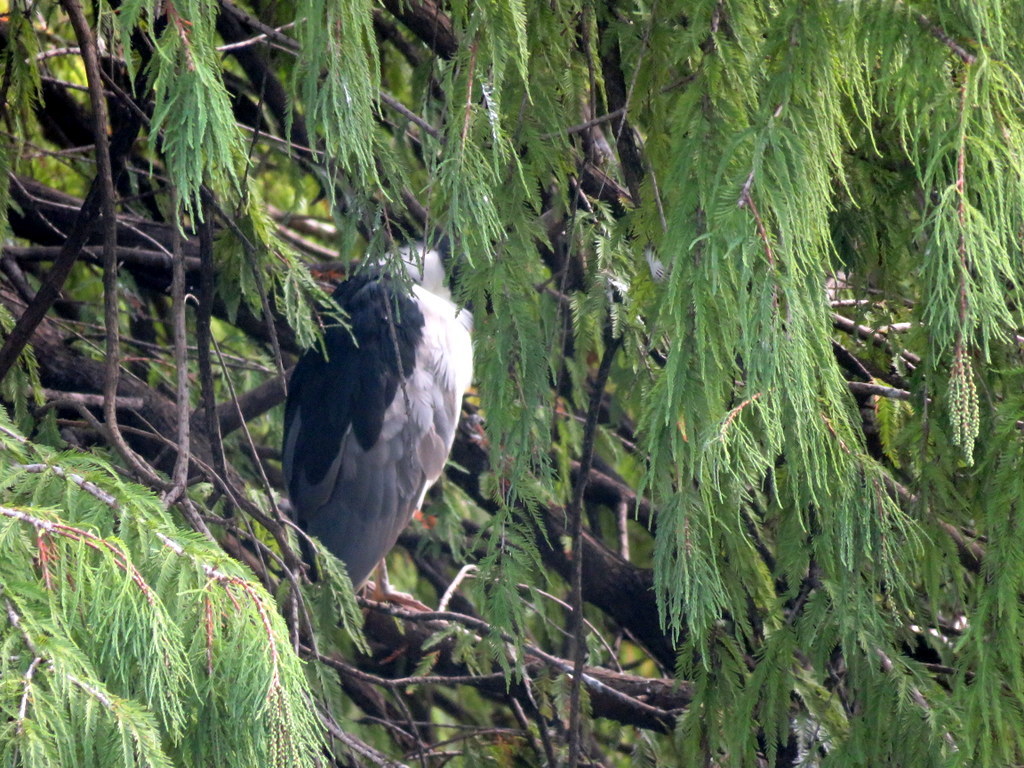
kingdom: Animalia
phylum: Chordata
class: Aves
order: Pelecaniformes
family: Ardeidae
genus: Nycticorax
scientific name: Nycticorax nycticorax
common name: Black-crowned night heron
